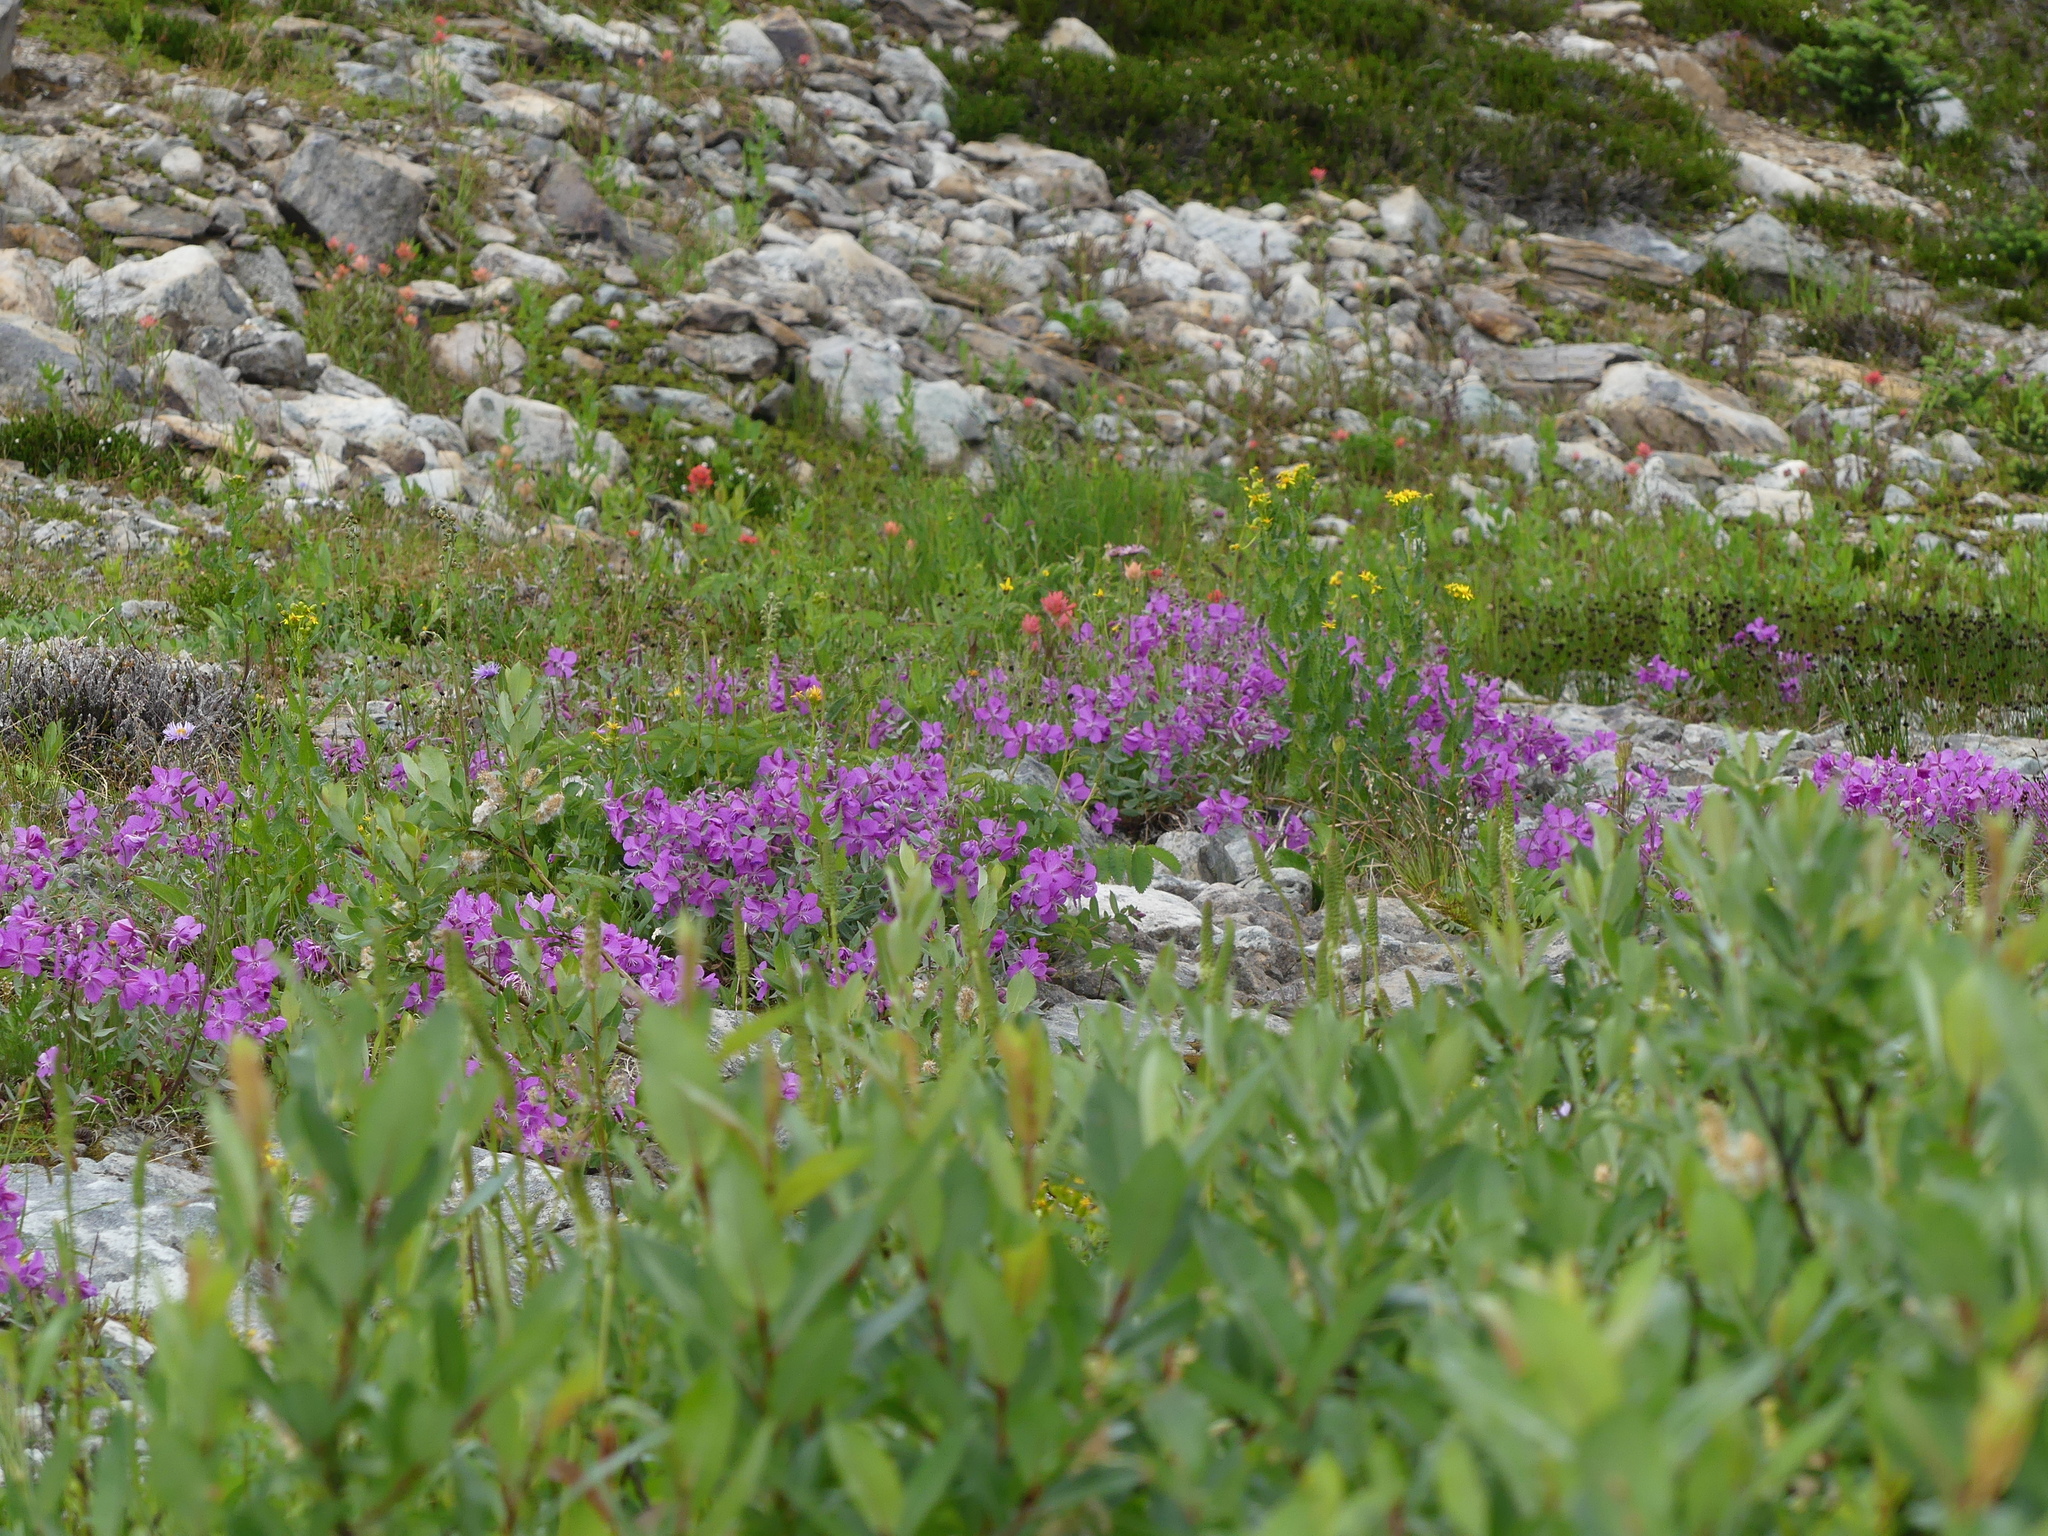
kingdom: Plantae
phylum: Tracheophyta
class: Magnoliopsida
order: Myrtales
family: Onagraceae
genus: Chamaenerion
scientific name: Chamaenerion latifolium
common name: Dwarf fireweed
